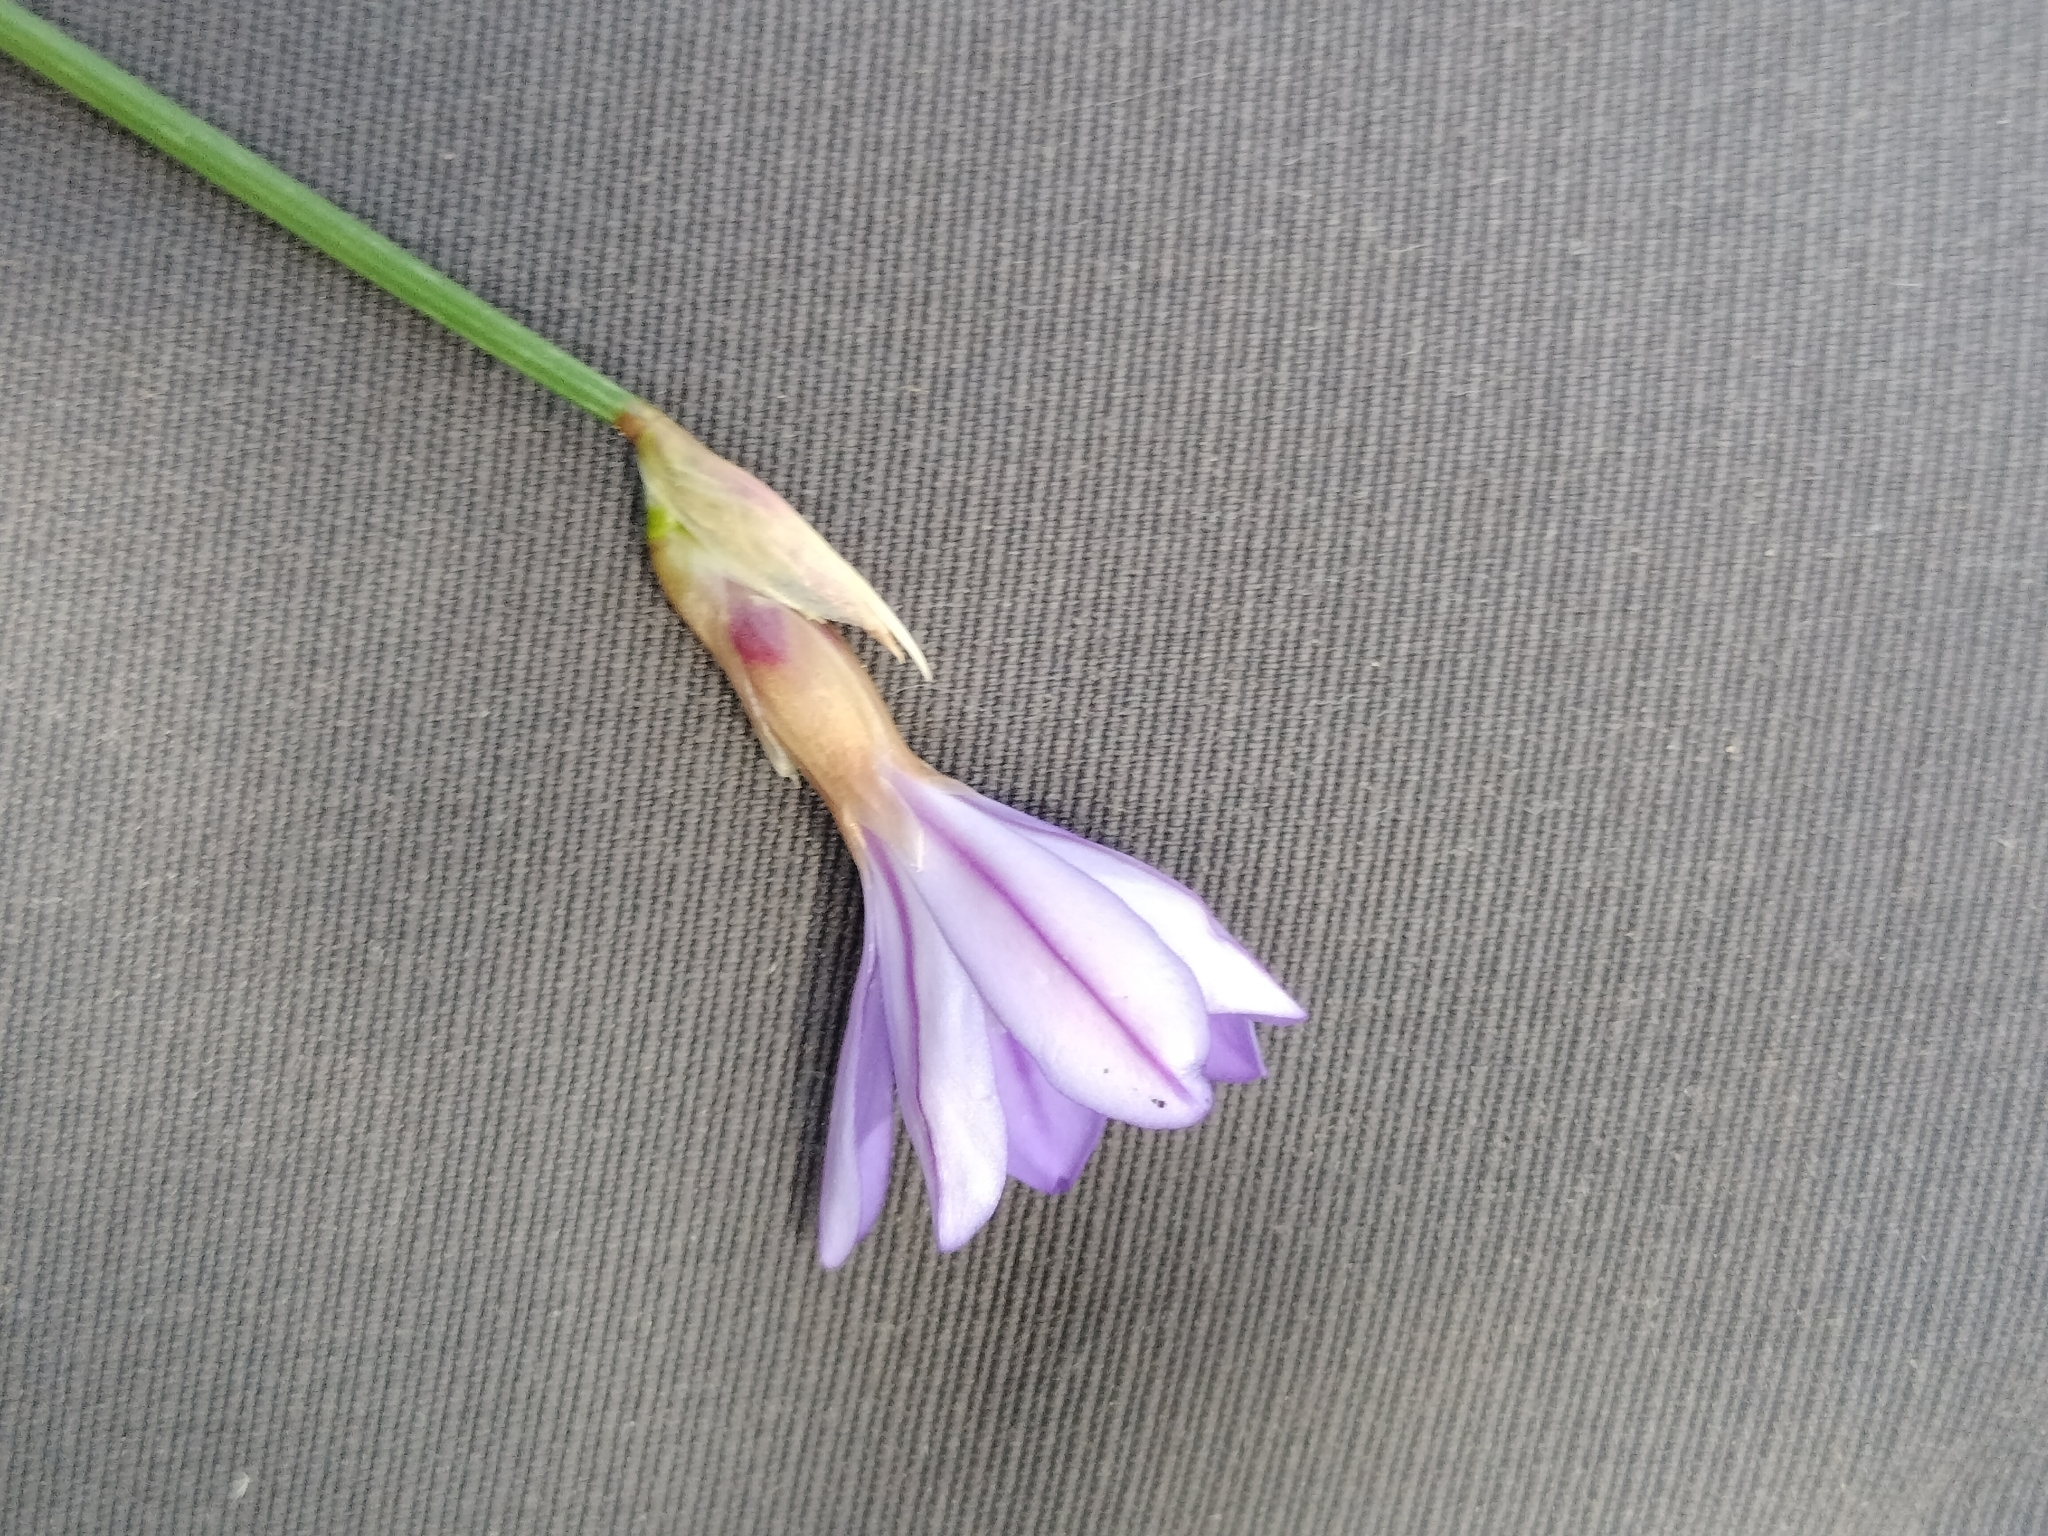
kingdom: Plantae
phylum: Tracheophyta
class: Liliopsida
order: Asparagales
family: Asparagaceae
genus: Aphyllanthes
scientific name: Aphyllanthes monspeliensis
